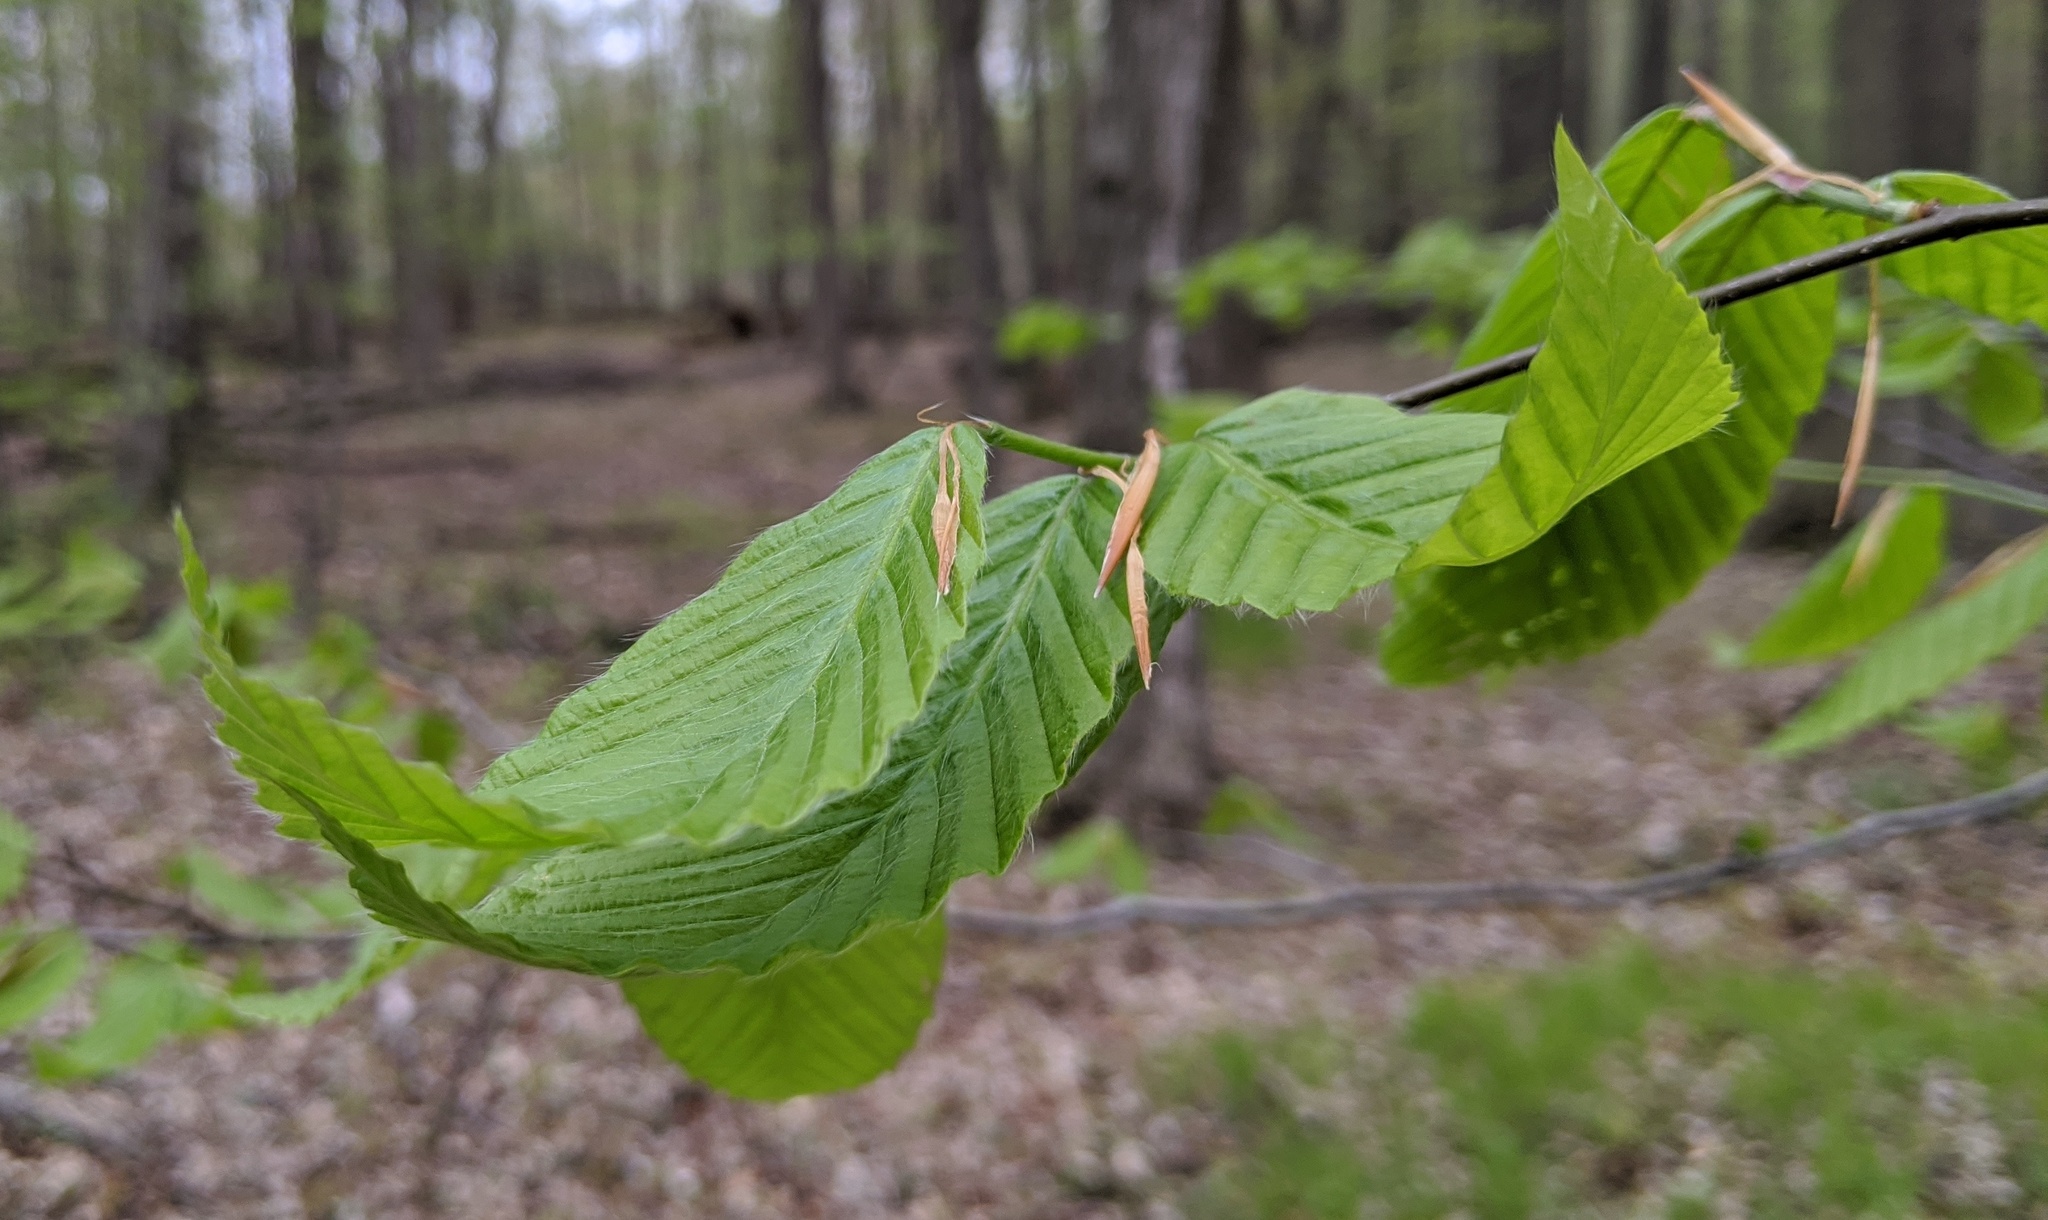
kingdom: Plantae
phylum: Tracheophyta
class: Magnoliopsida
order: Fagales
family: Fagaceae
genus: Fagus
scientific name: Fagus grandifolia
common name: American beech
